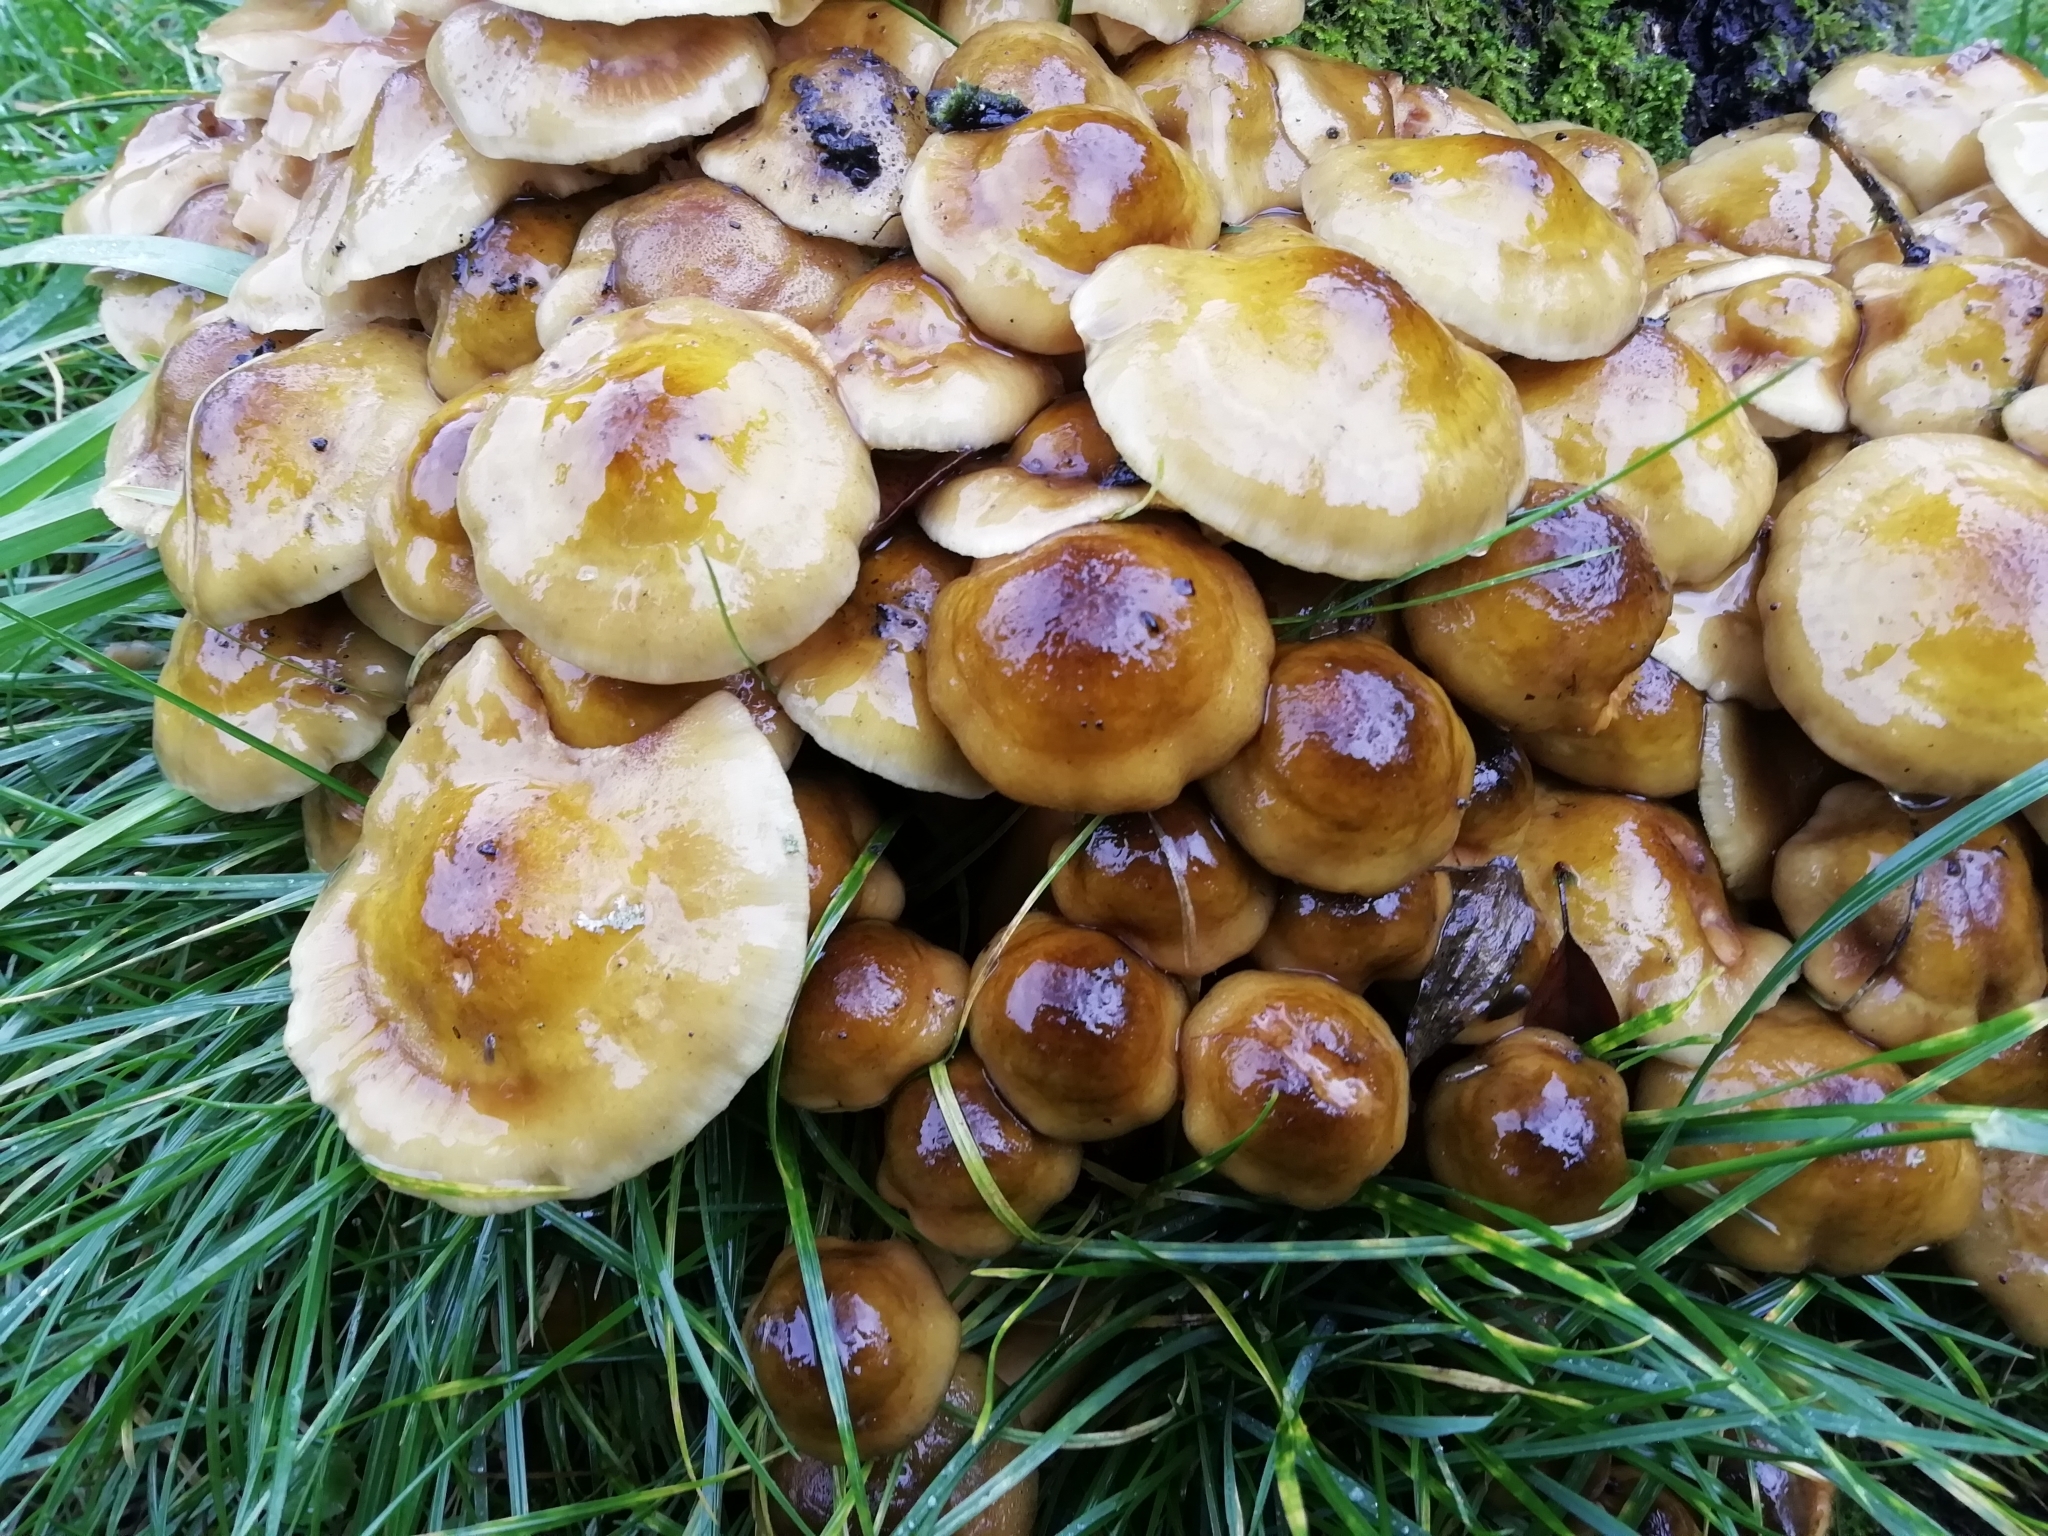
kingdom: Fungi
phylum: Basidiomycota
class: Agaricomycetes
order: Agaricales
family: Physalacriaceae
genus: Armillaria
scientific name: Armillaria mellea
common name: Honey fungus
